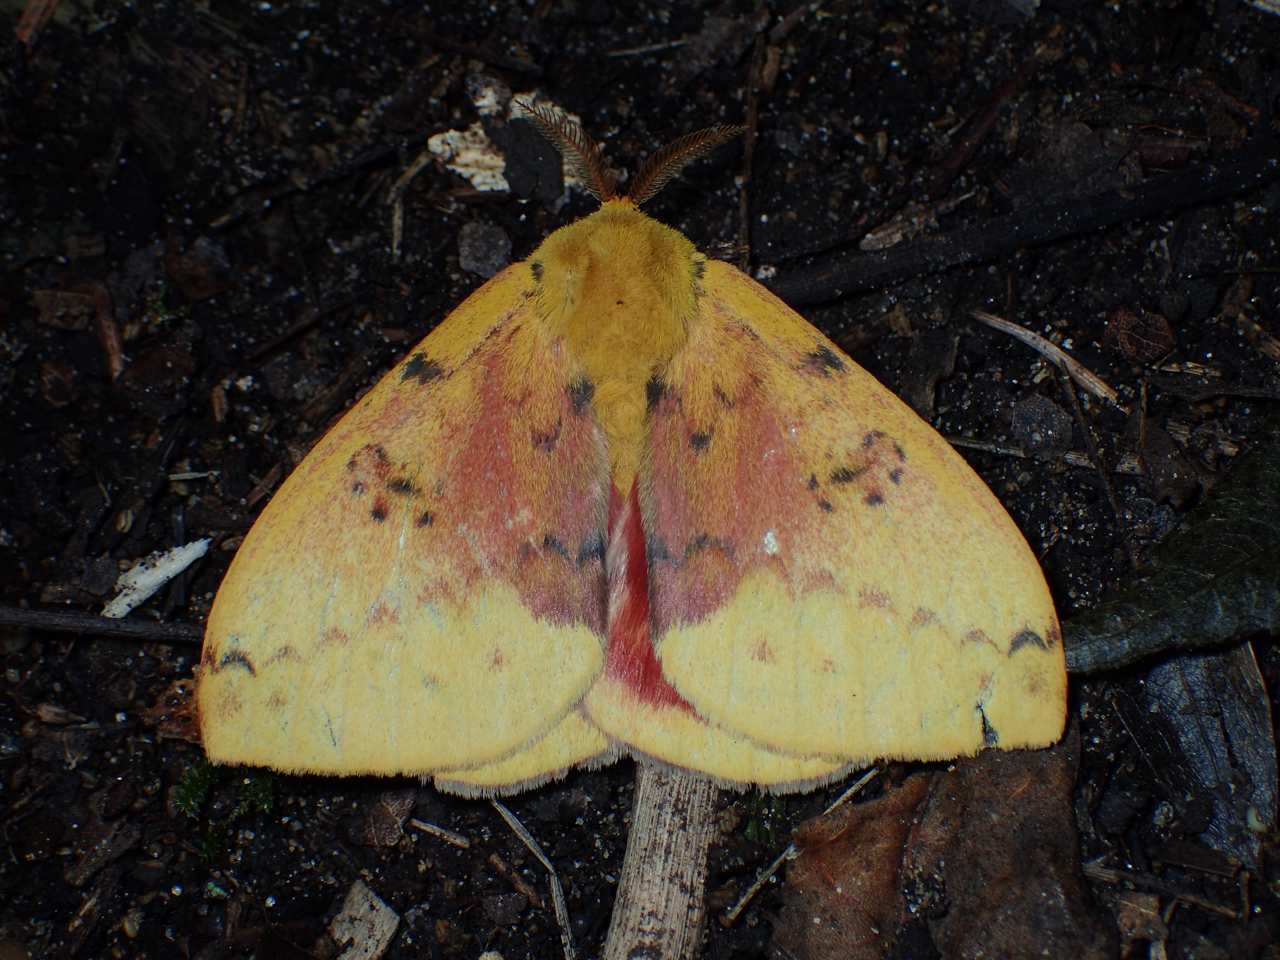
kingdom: Animalia
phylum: Arthropoda
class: Insecta
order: Lepidoptera
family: Saturniidae
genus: Automeris
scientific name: Automeris io
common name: Io moth
